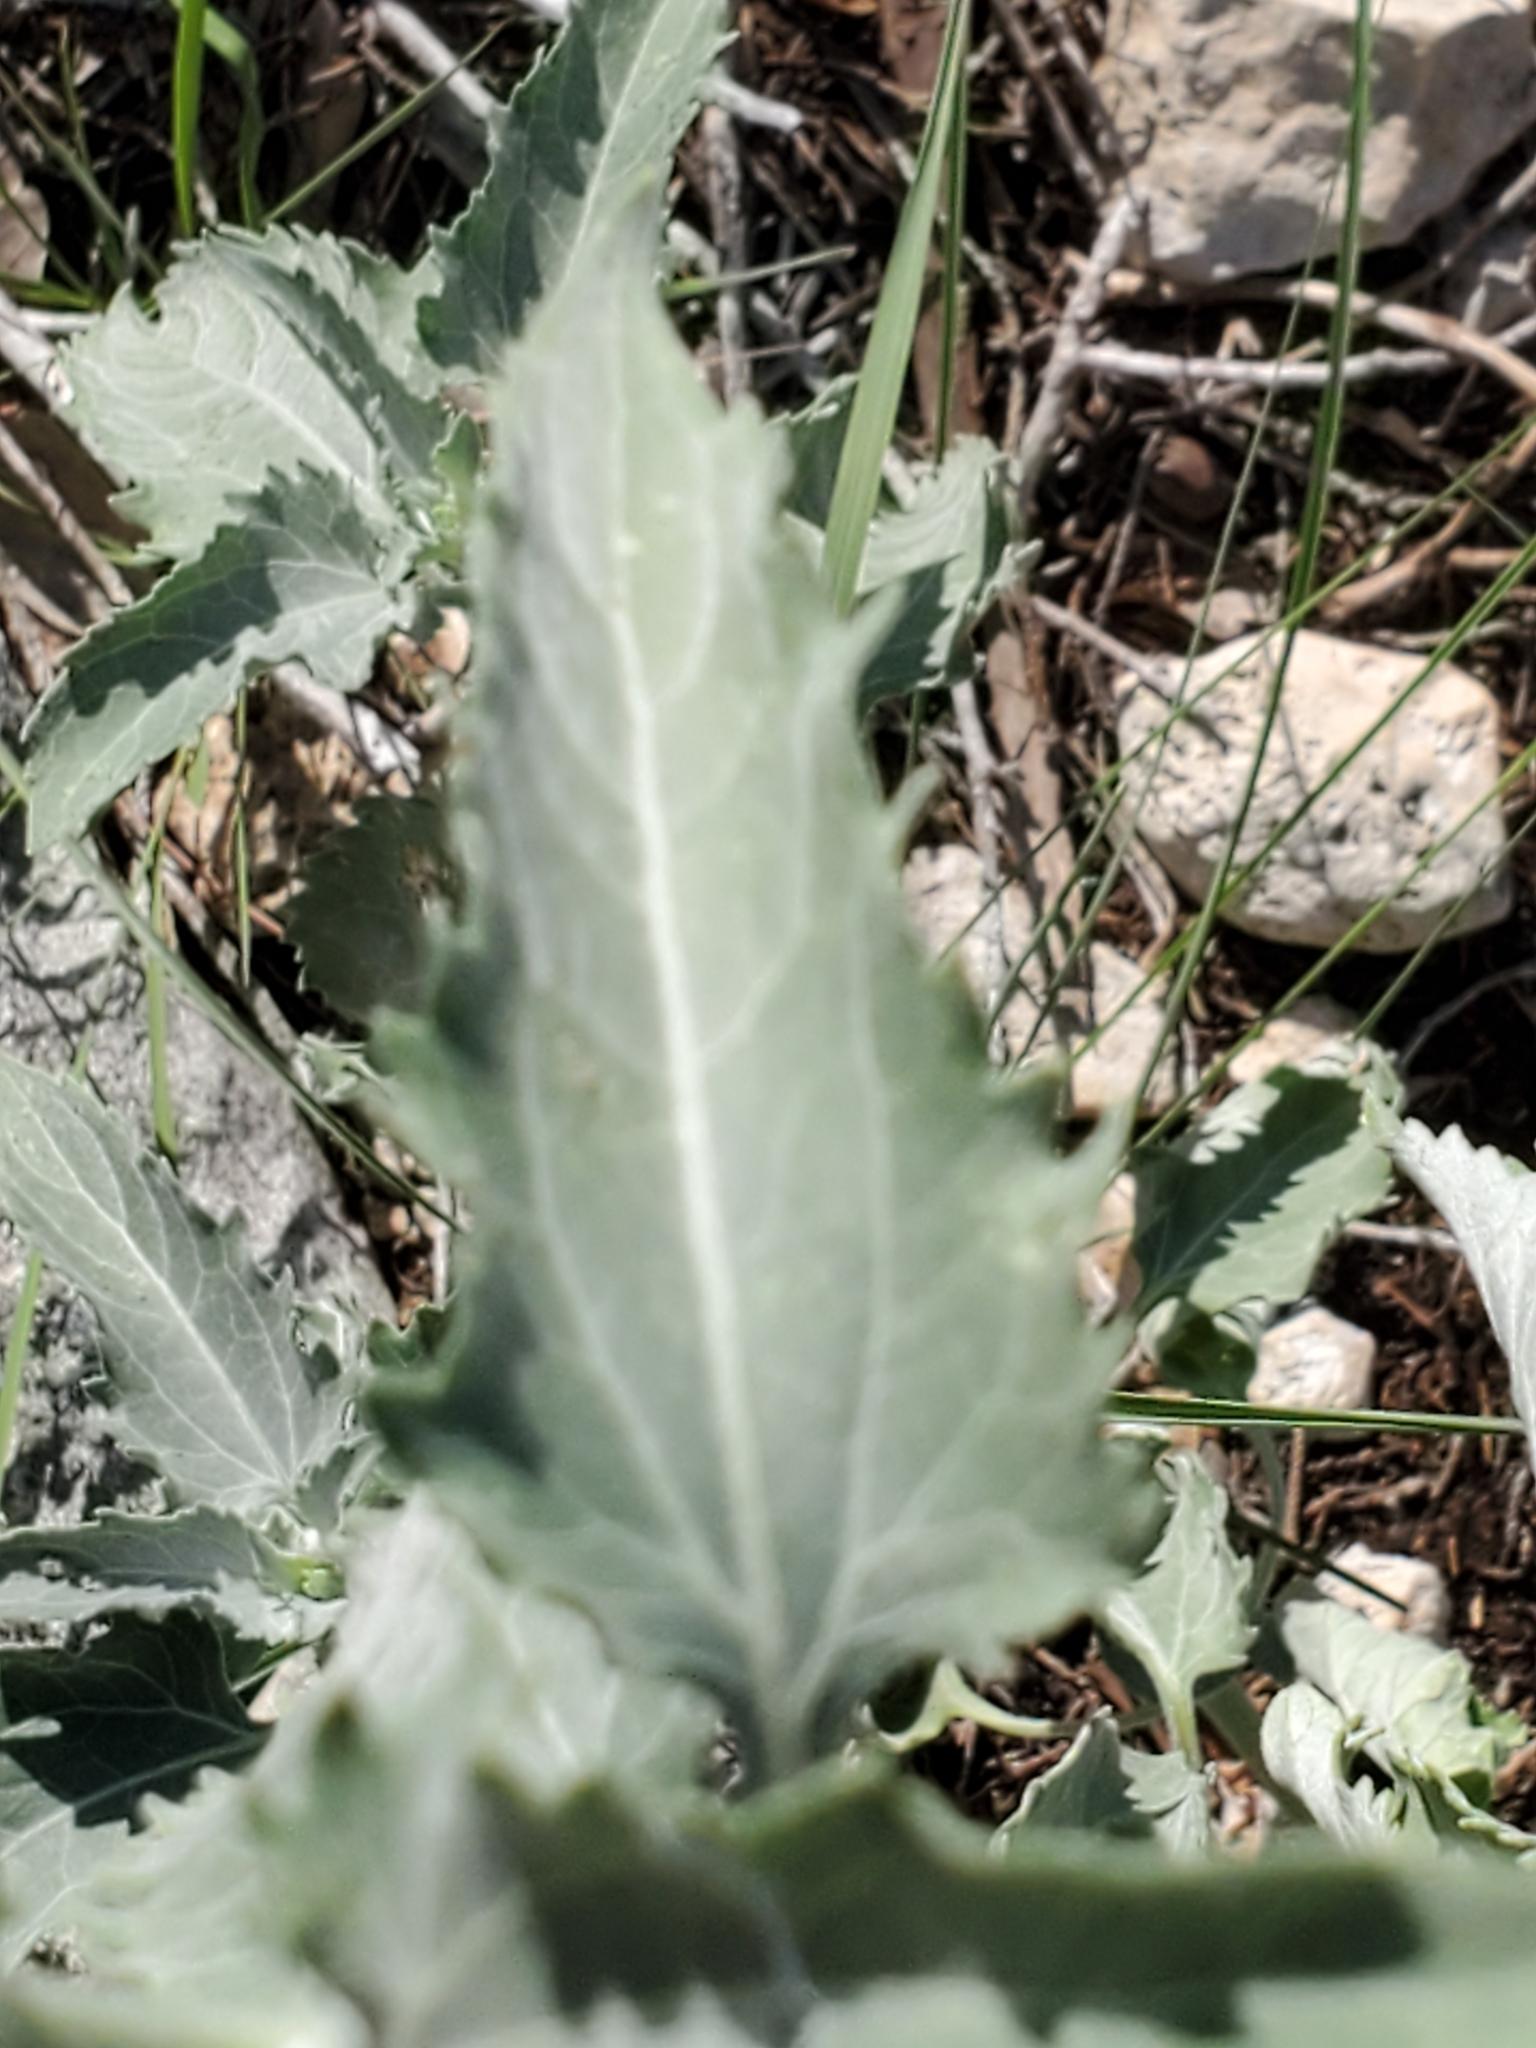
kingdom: Plantae
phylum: Tracheophyta
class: Magnoliopsida
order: Asterales
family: Asteraceae
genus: Verbesina
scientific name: Verbesina encelioides
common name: Golden crownbeard
